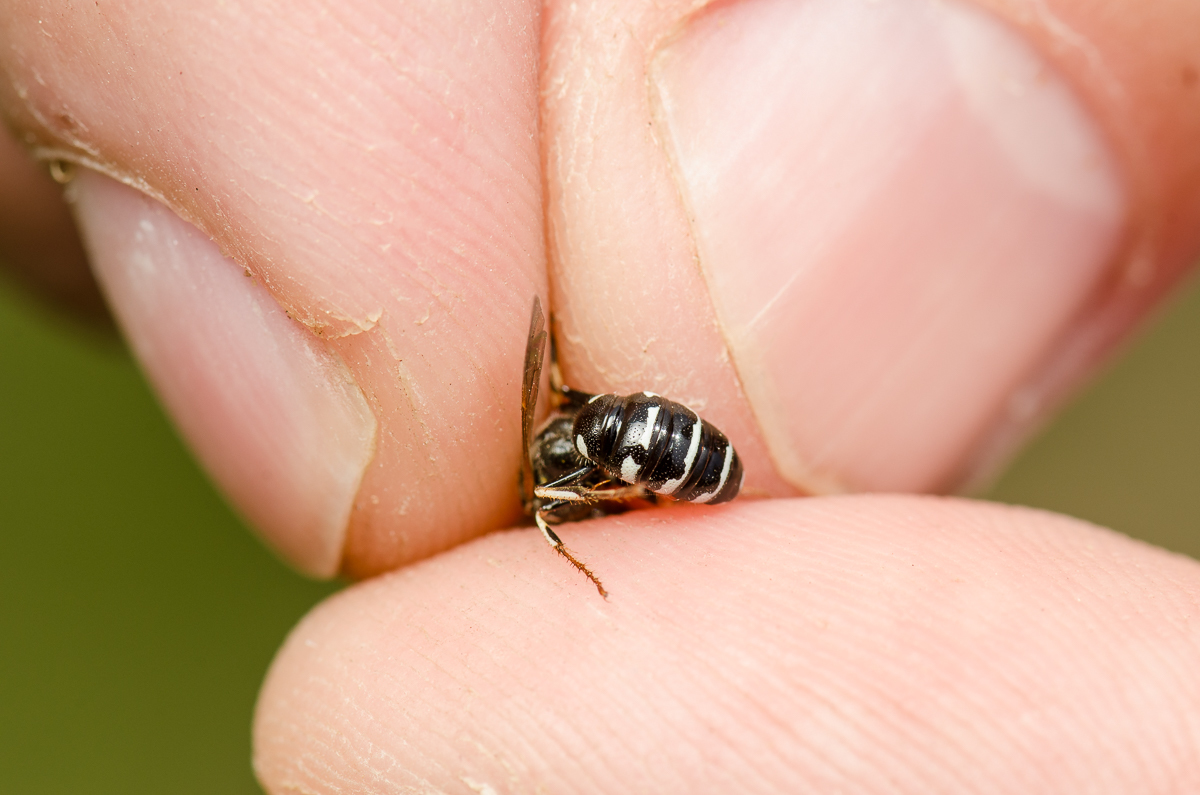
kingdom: Animalia
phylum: Arthropoda
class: Insecta
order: Hymenoptera
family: Crabronidae
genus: Philanthus
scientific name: Philanthus politus
